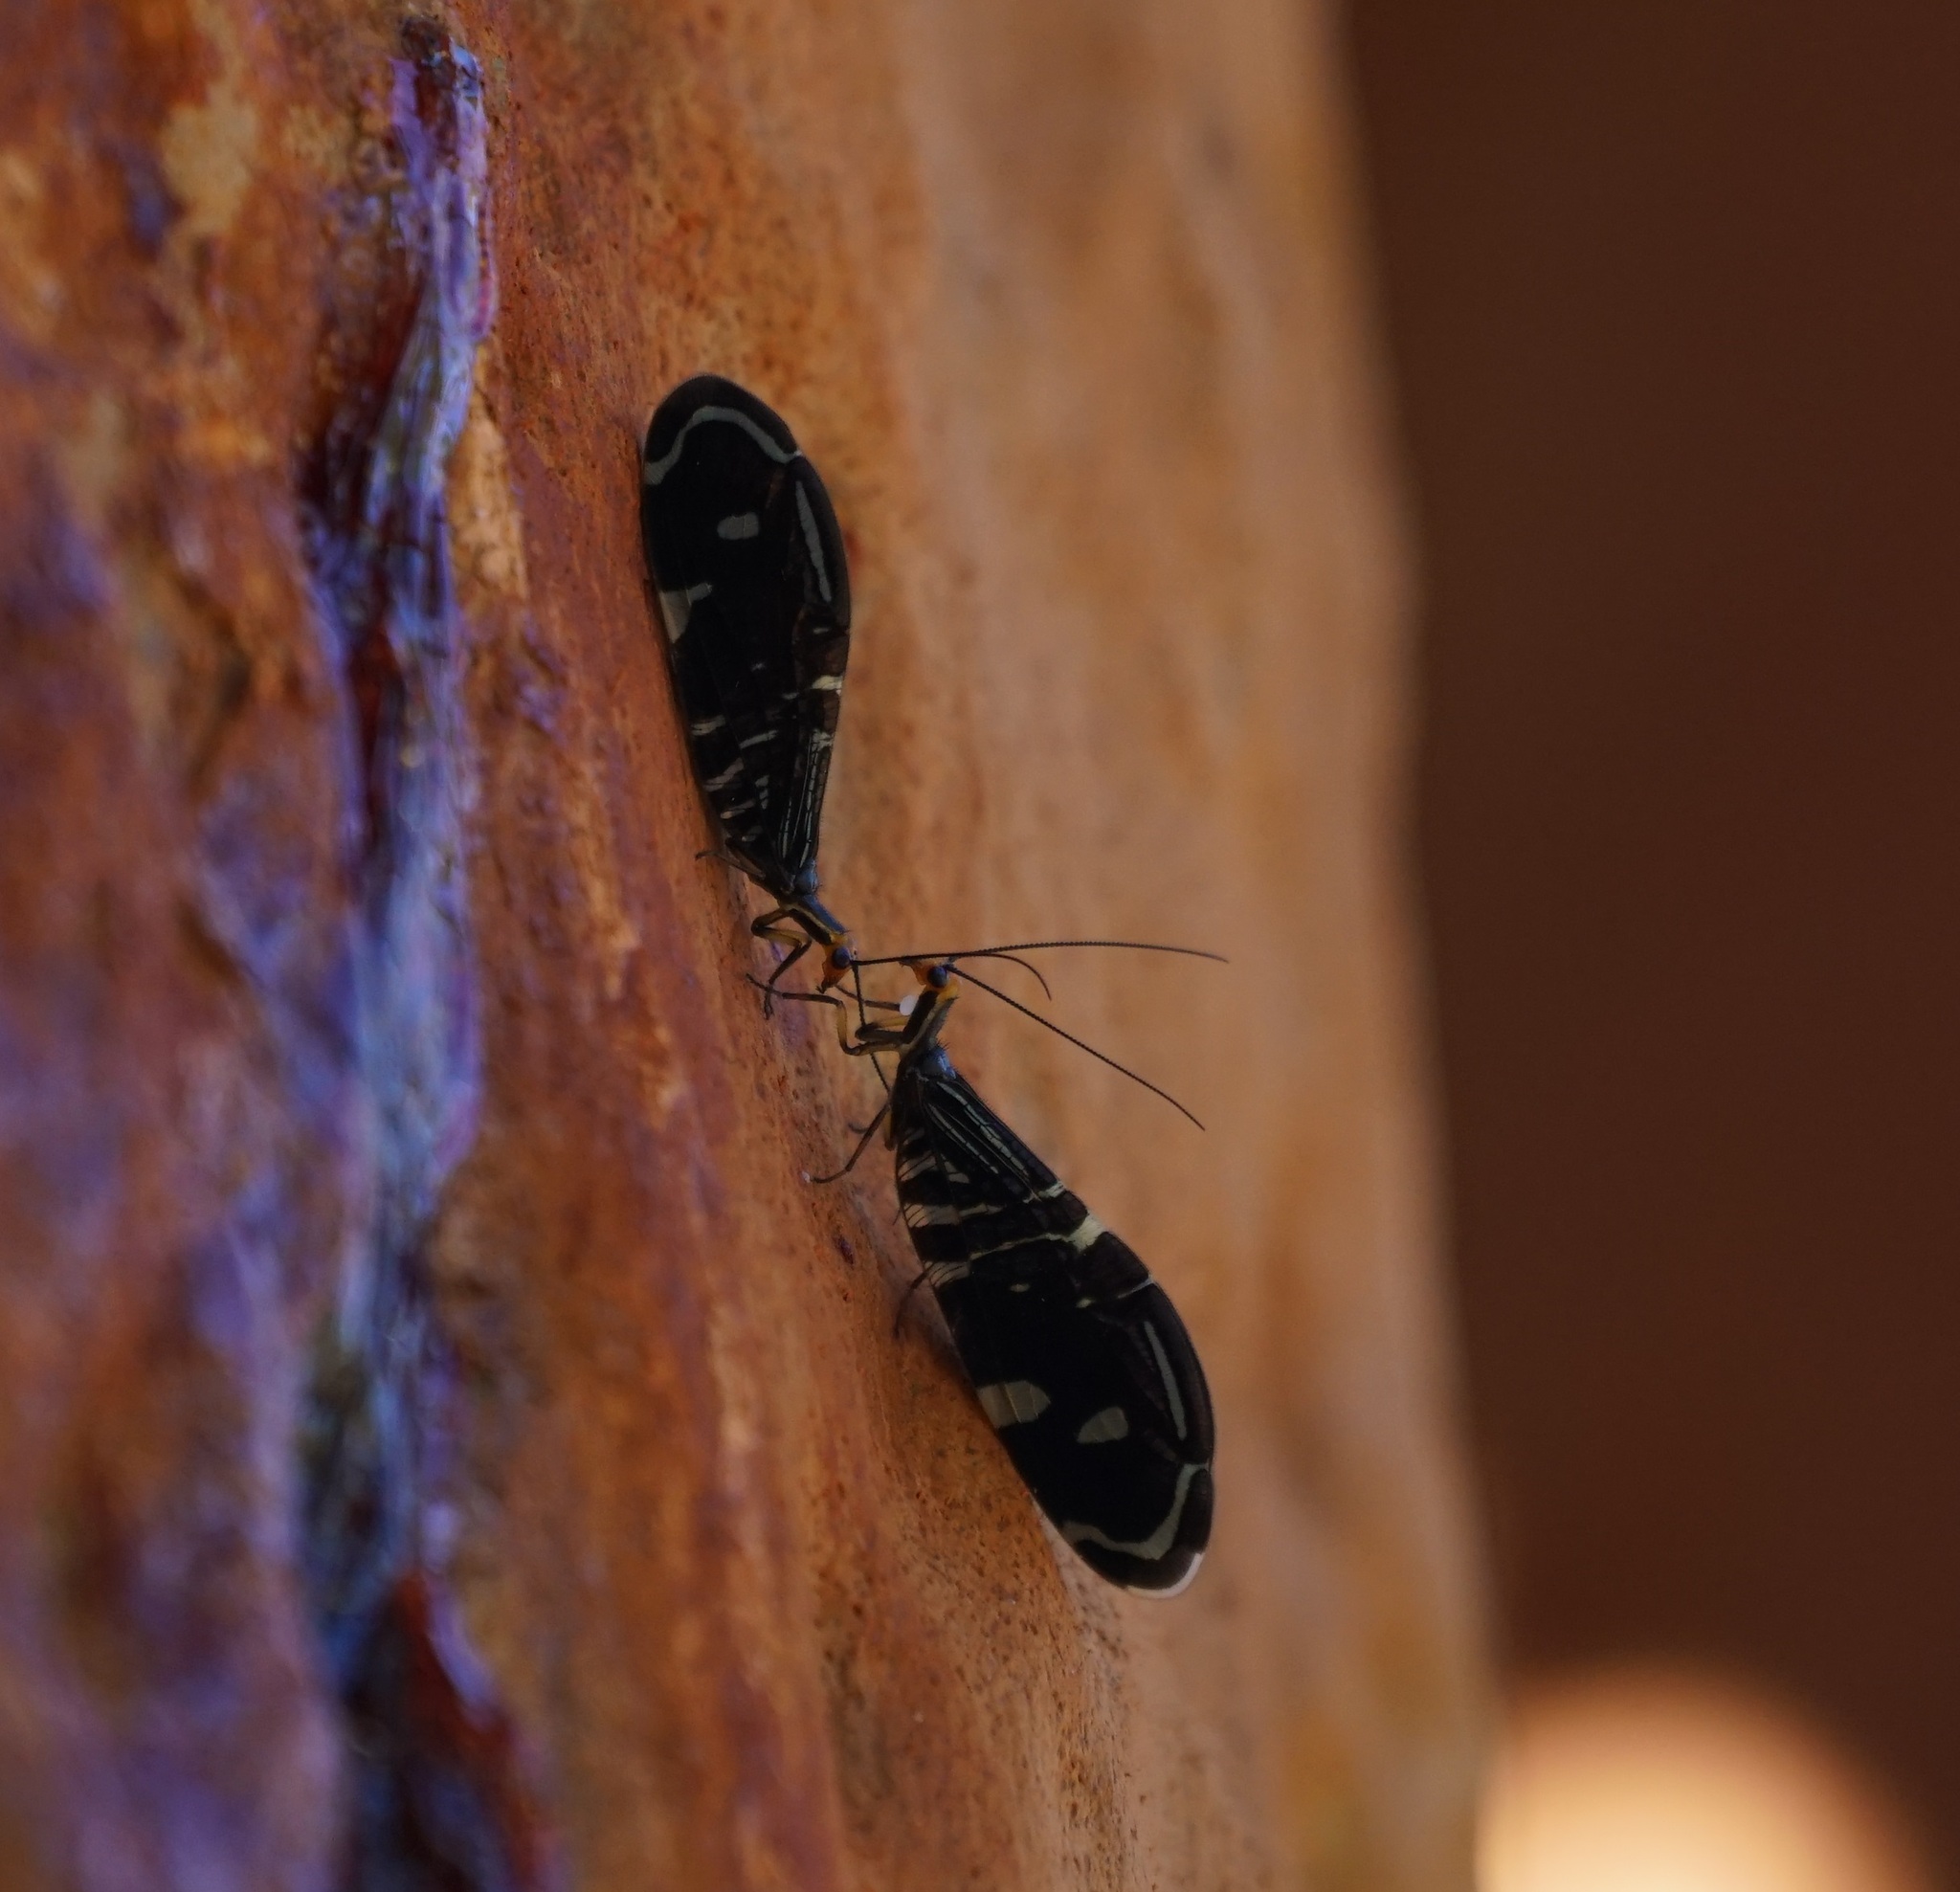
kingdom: Animalia
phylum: Arthropoda
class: Insecta
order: Neuroptera
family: Osmylidae
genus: Porismus
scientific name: Porismus strigatus
